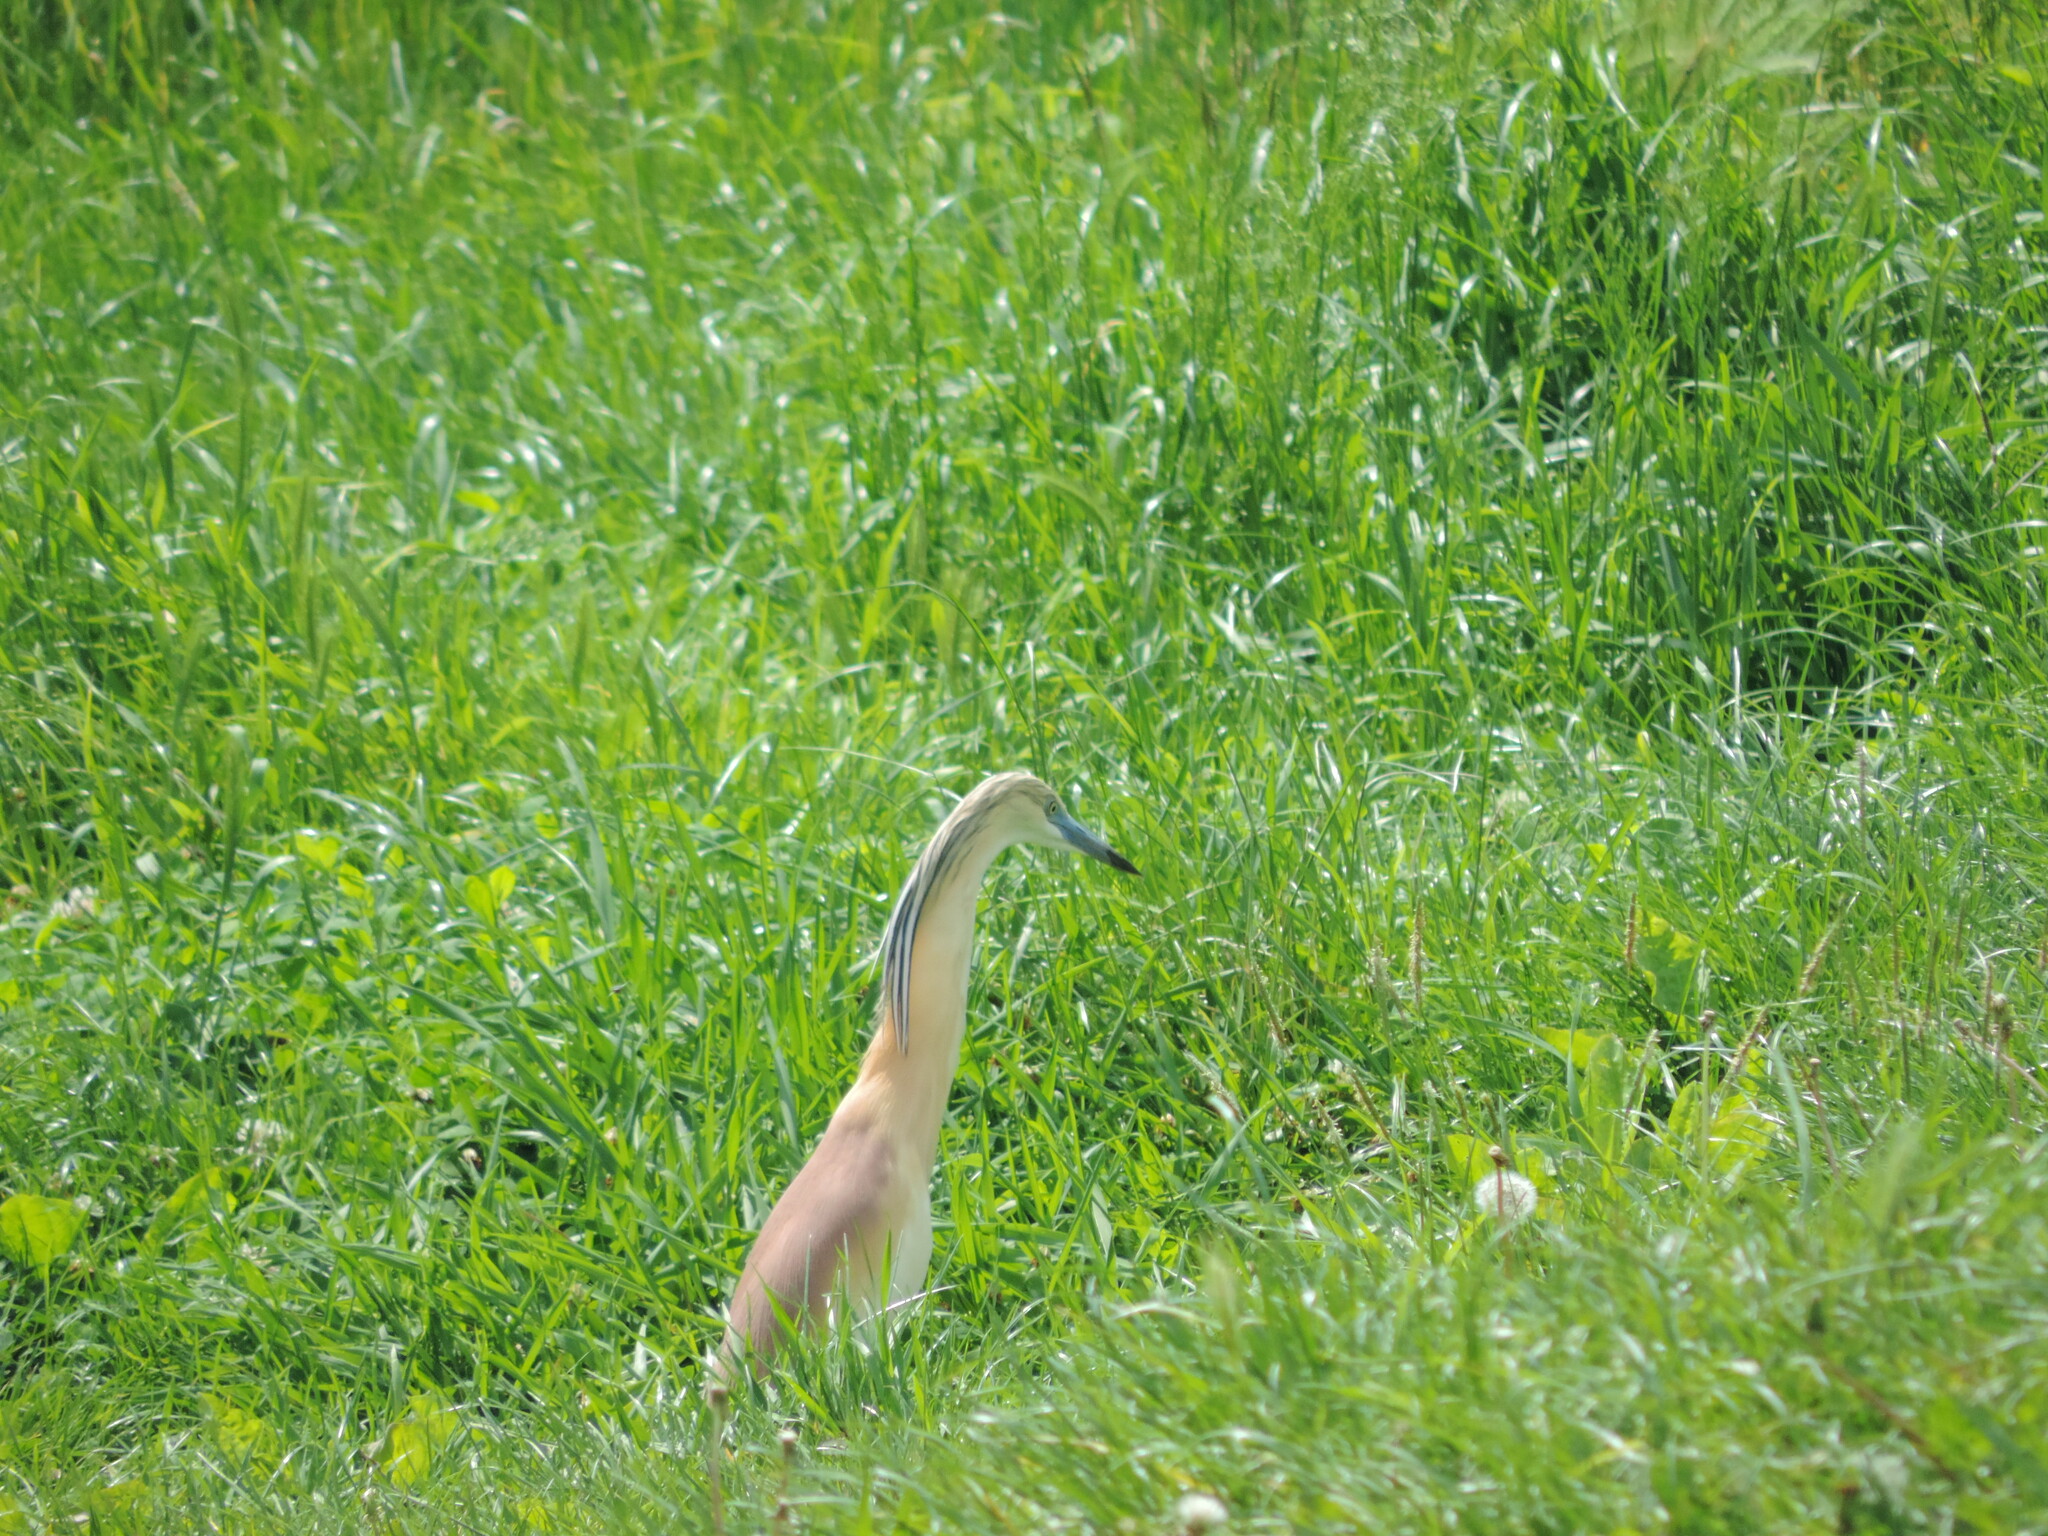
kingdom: Animalia
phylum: Chordata
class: Aves
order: Pelecaniformes
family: Ardeidae
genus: Ardeola
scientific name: Ardeola ralloides
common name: Squacco heron
